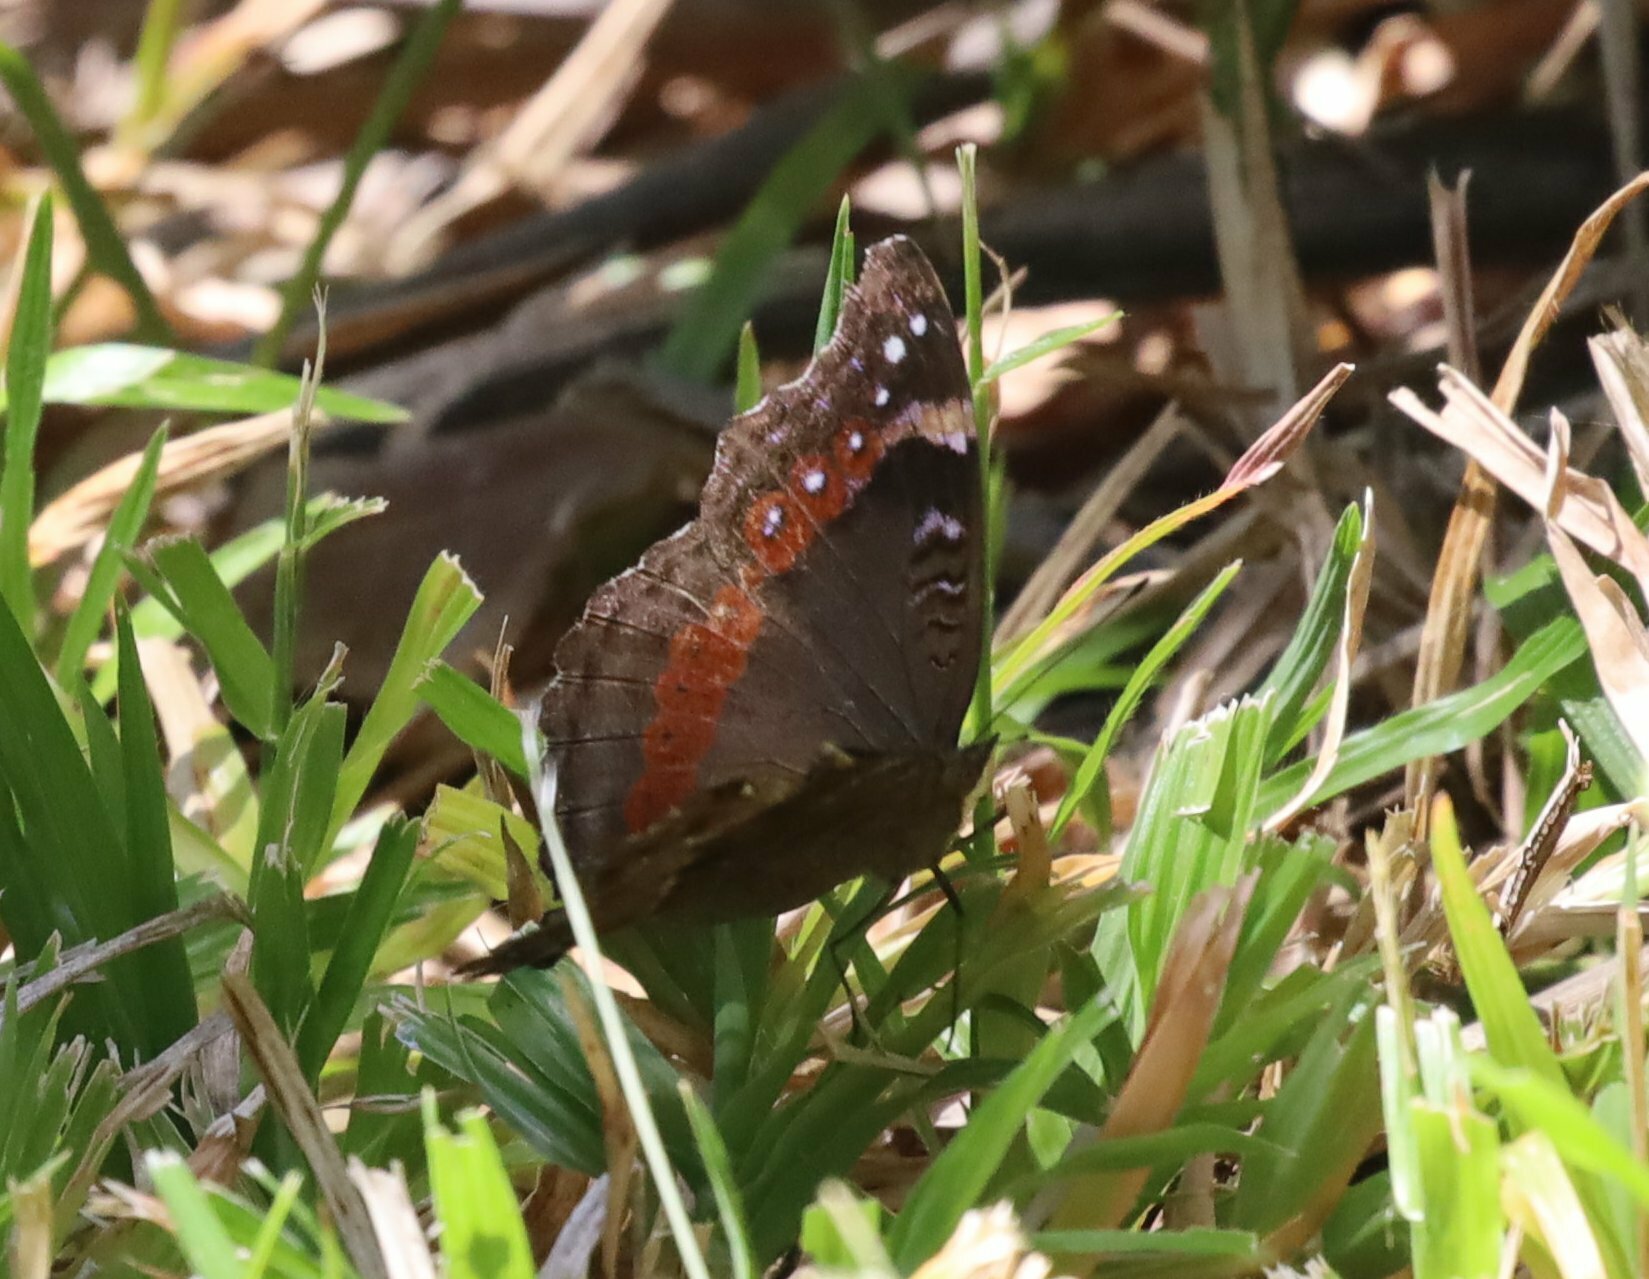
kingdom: Animalia
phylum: Arthropoda
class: Insecta
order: Lepidoptera
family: Nymphalidae
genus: Junonia
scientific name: Junonia archesia
